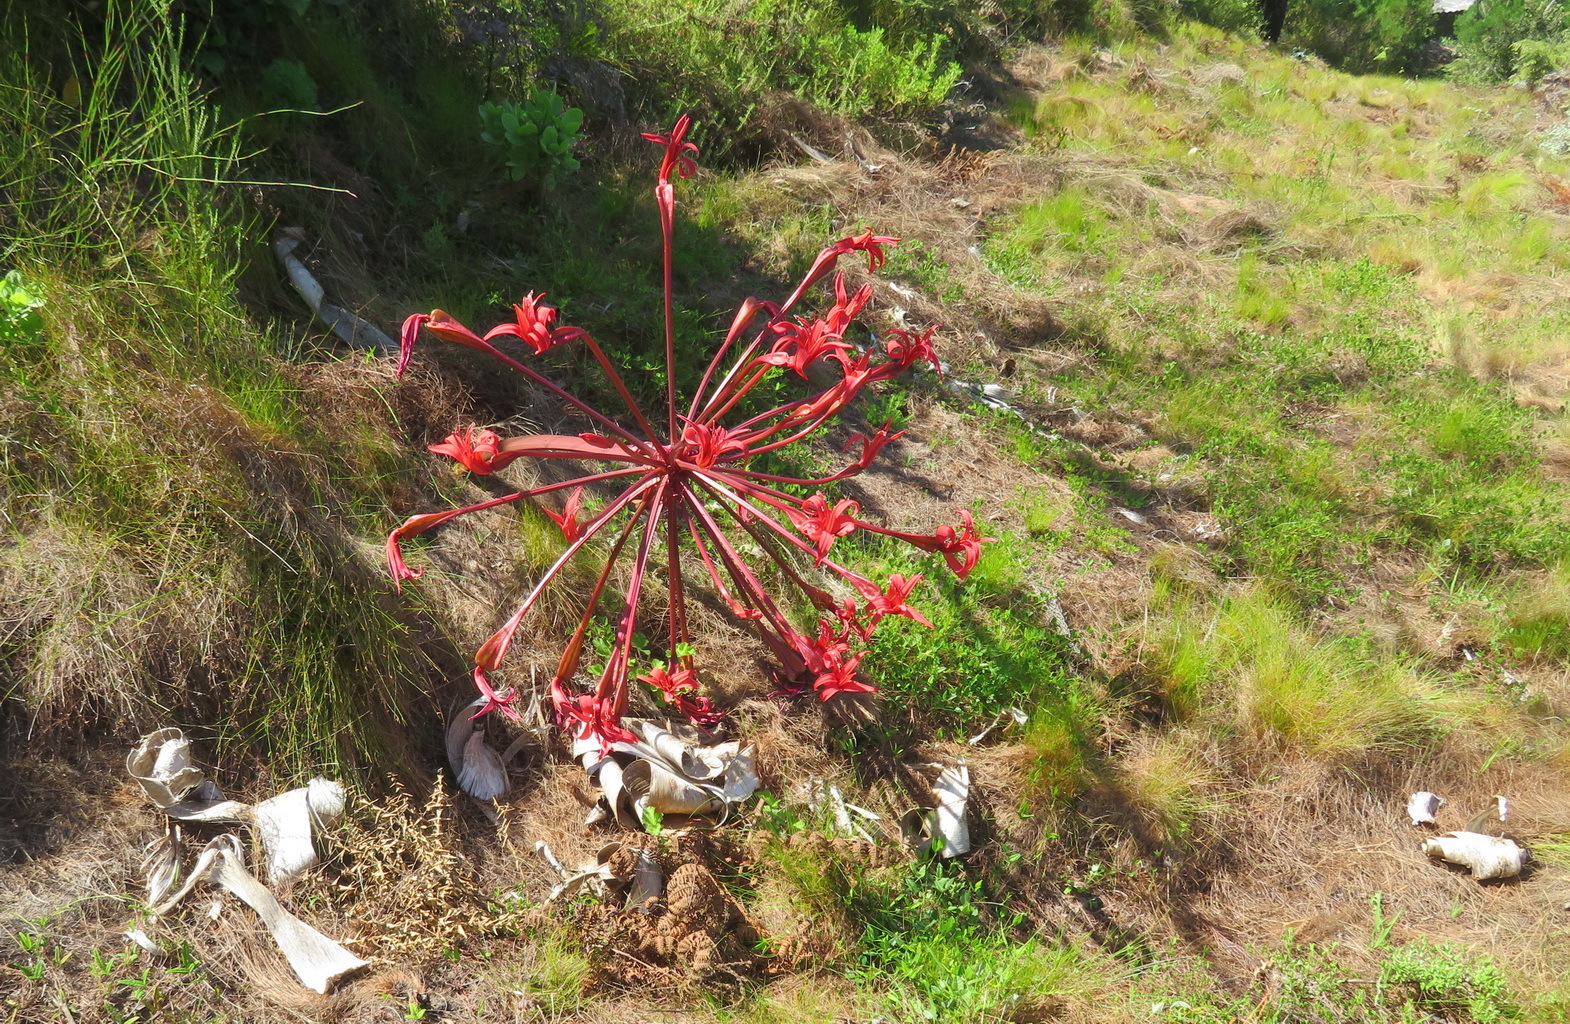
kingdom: Plantae
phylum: Tracheophyta
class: Liliopsida
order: Asparagales
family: Amaryllidaceae
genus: Brunsvigia
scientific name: Brunsvigia orientalis
